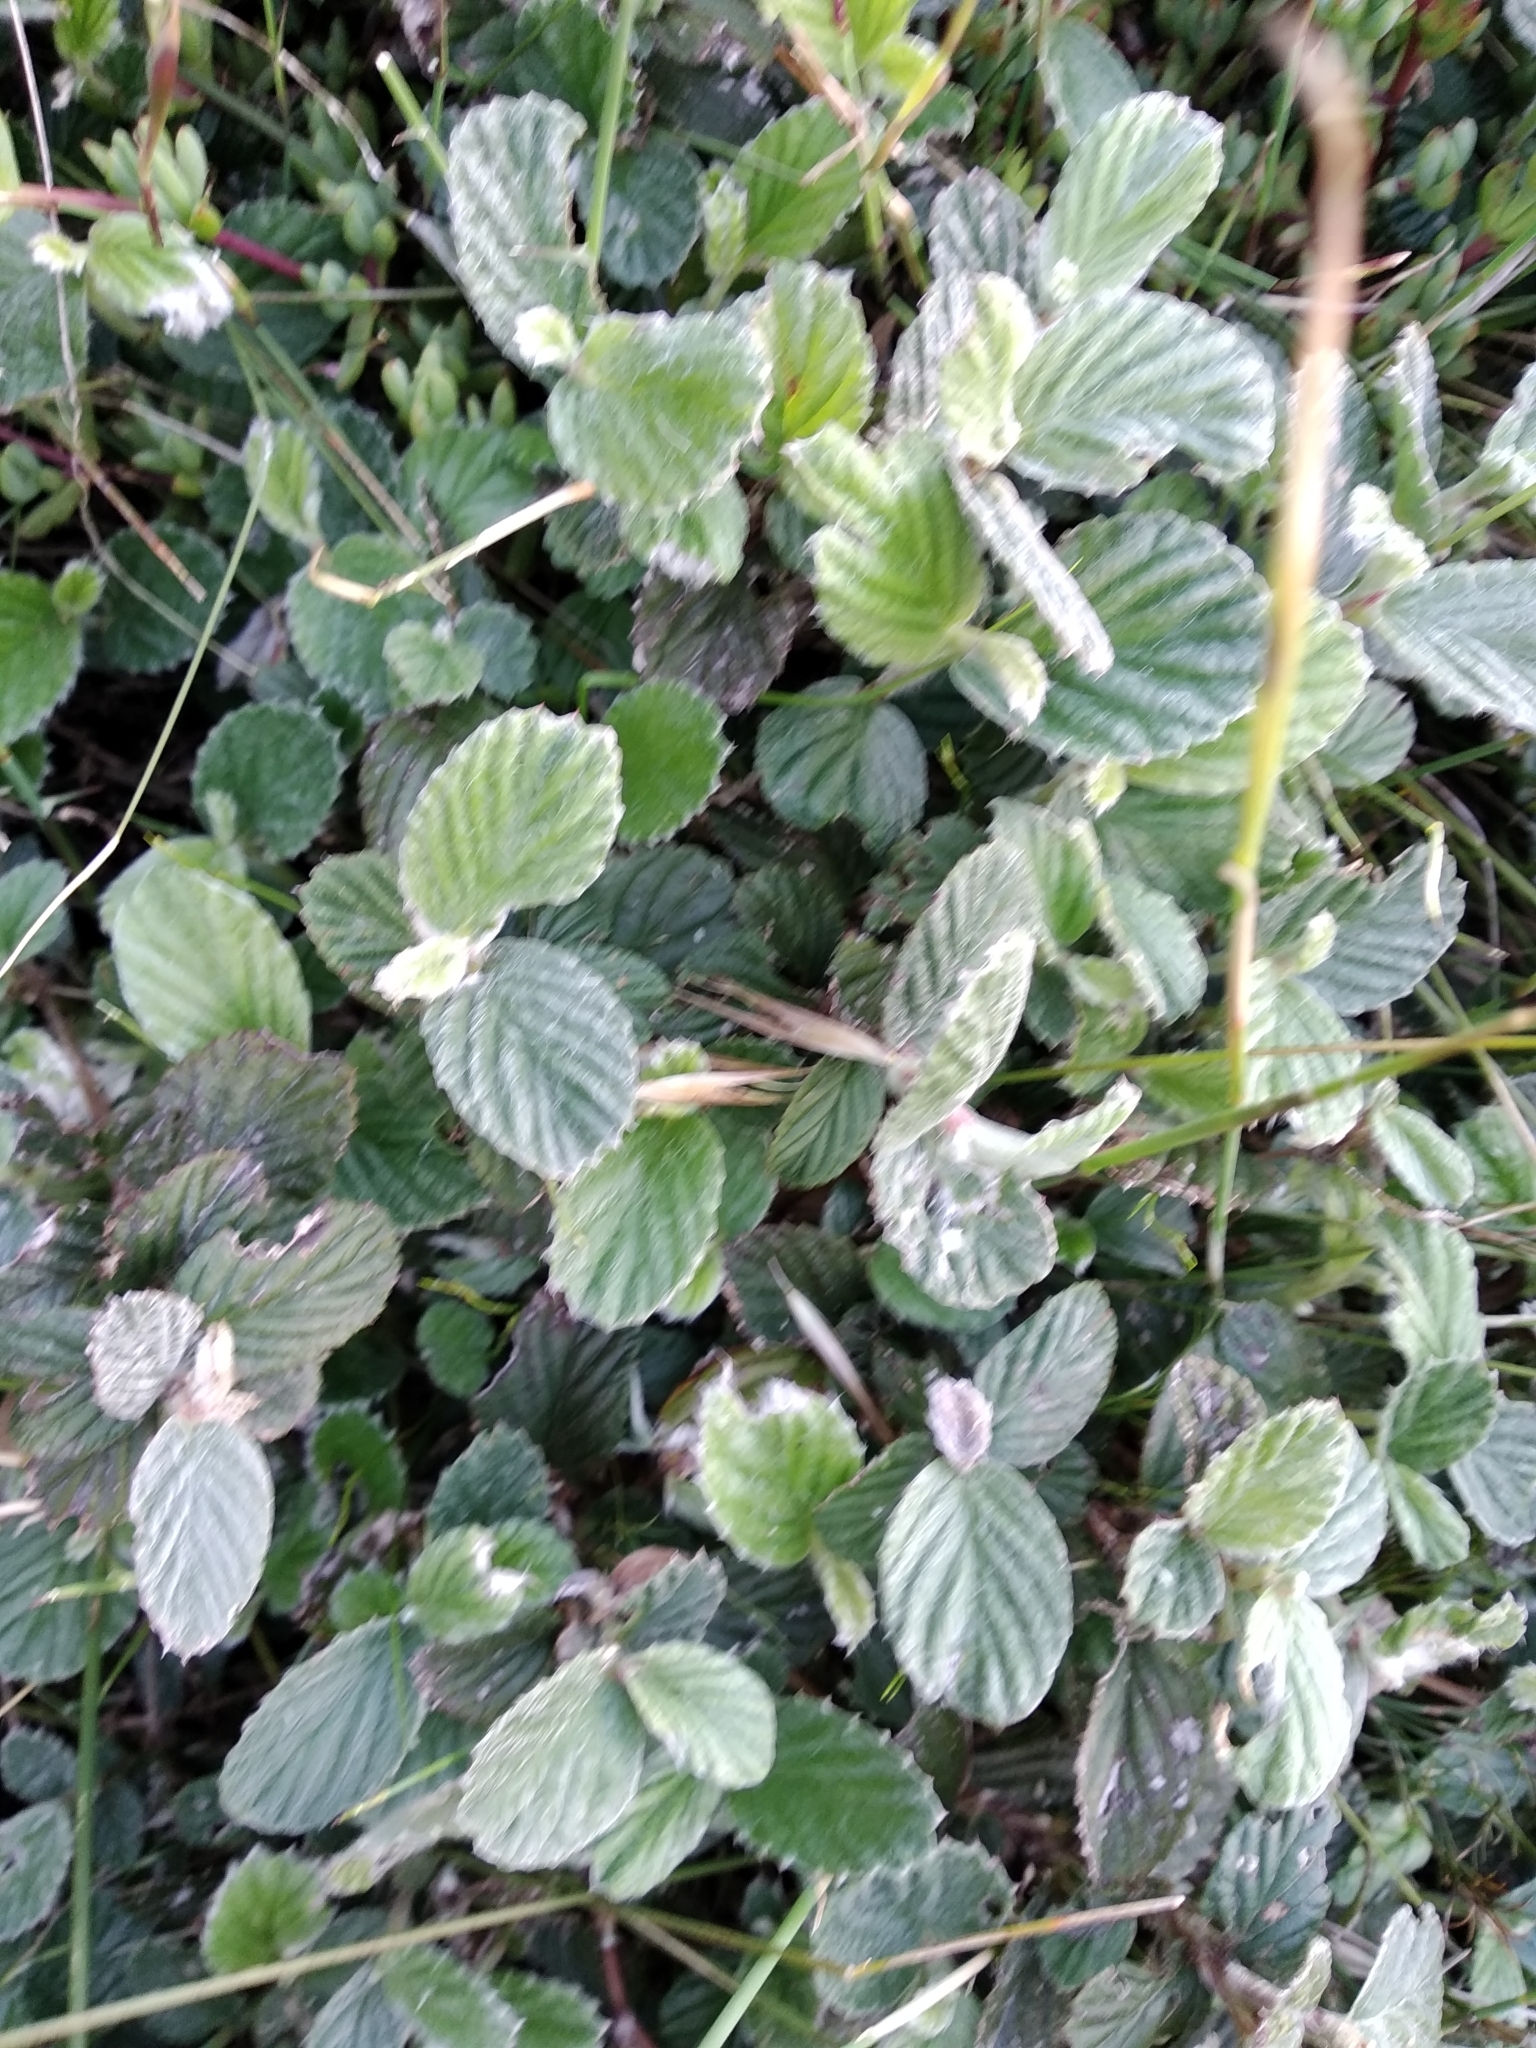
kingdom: Plantae
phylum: Tracheophyta
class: Magnoliopsida
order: Rosales
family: Rosaceae
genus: Cliffortia
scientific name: Cliffortia odorata
